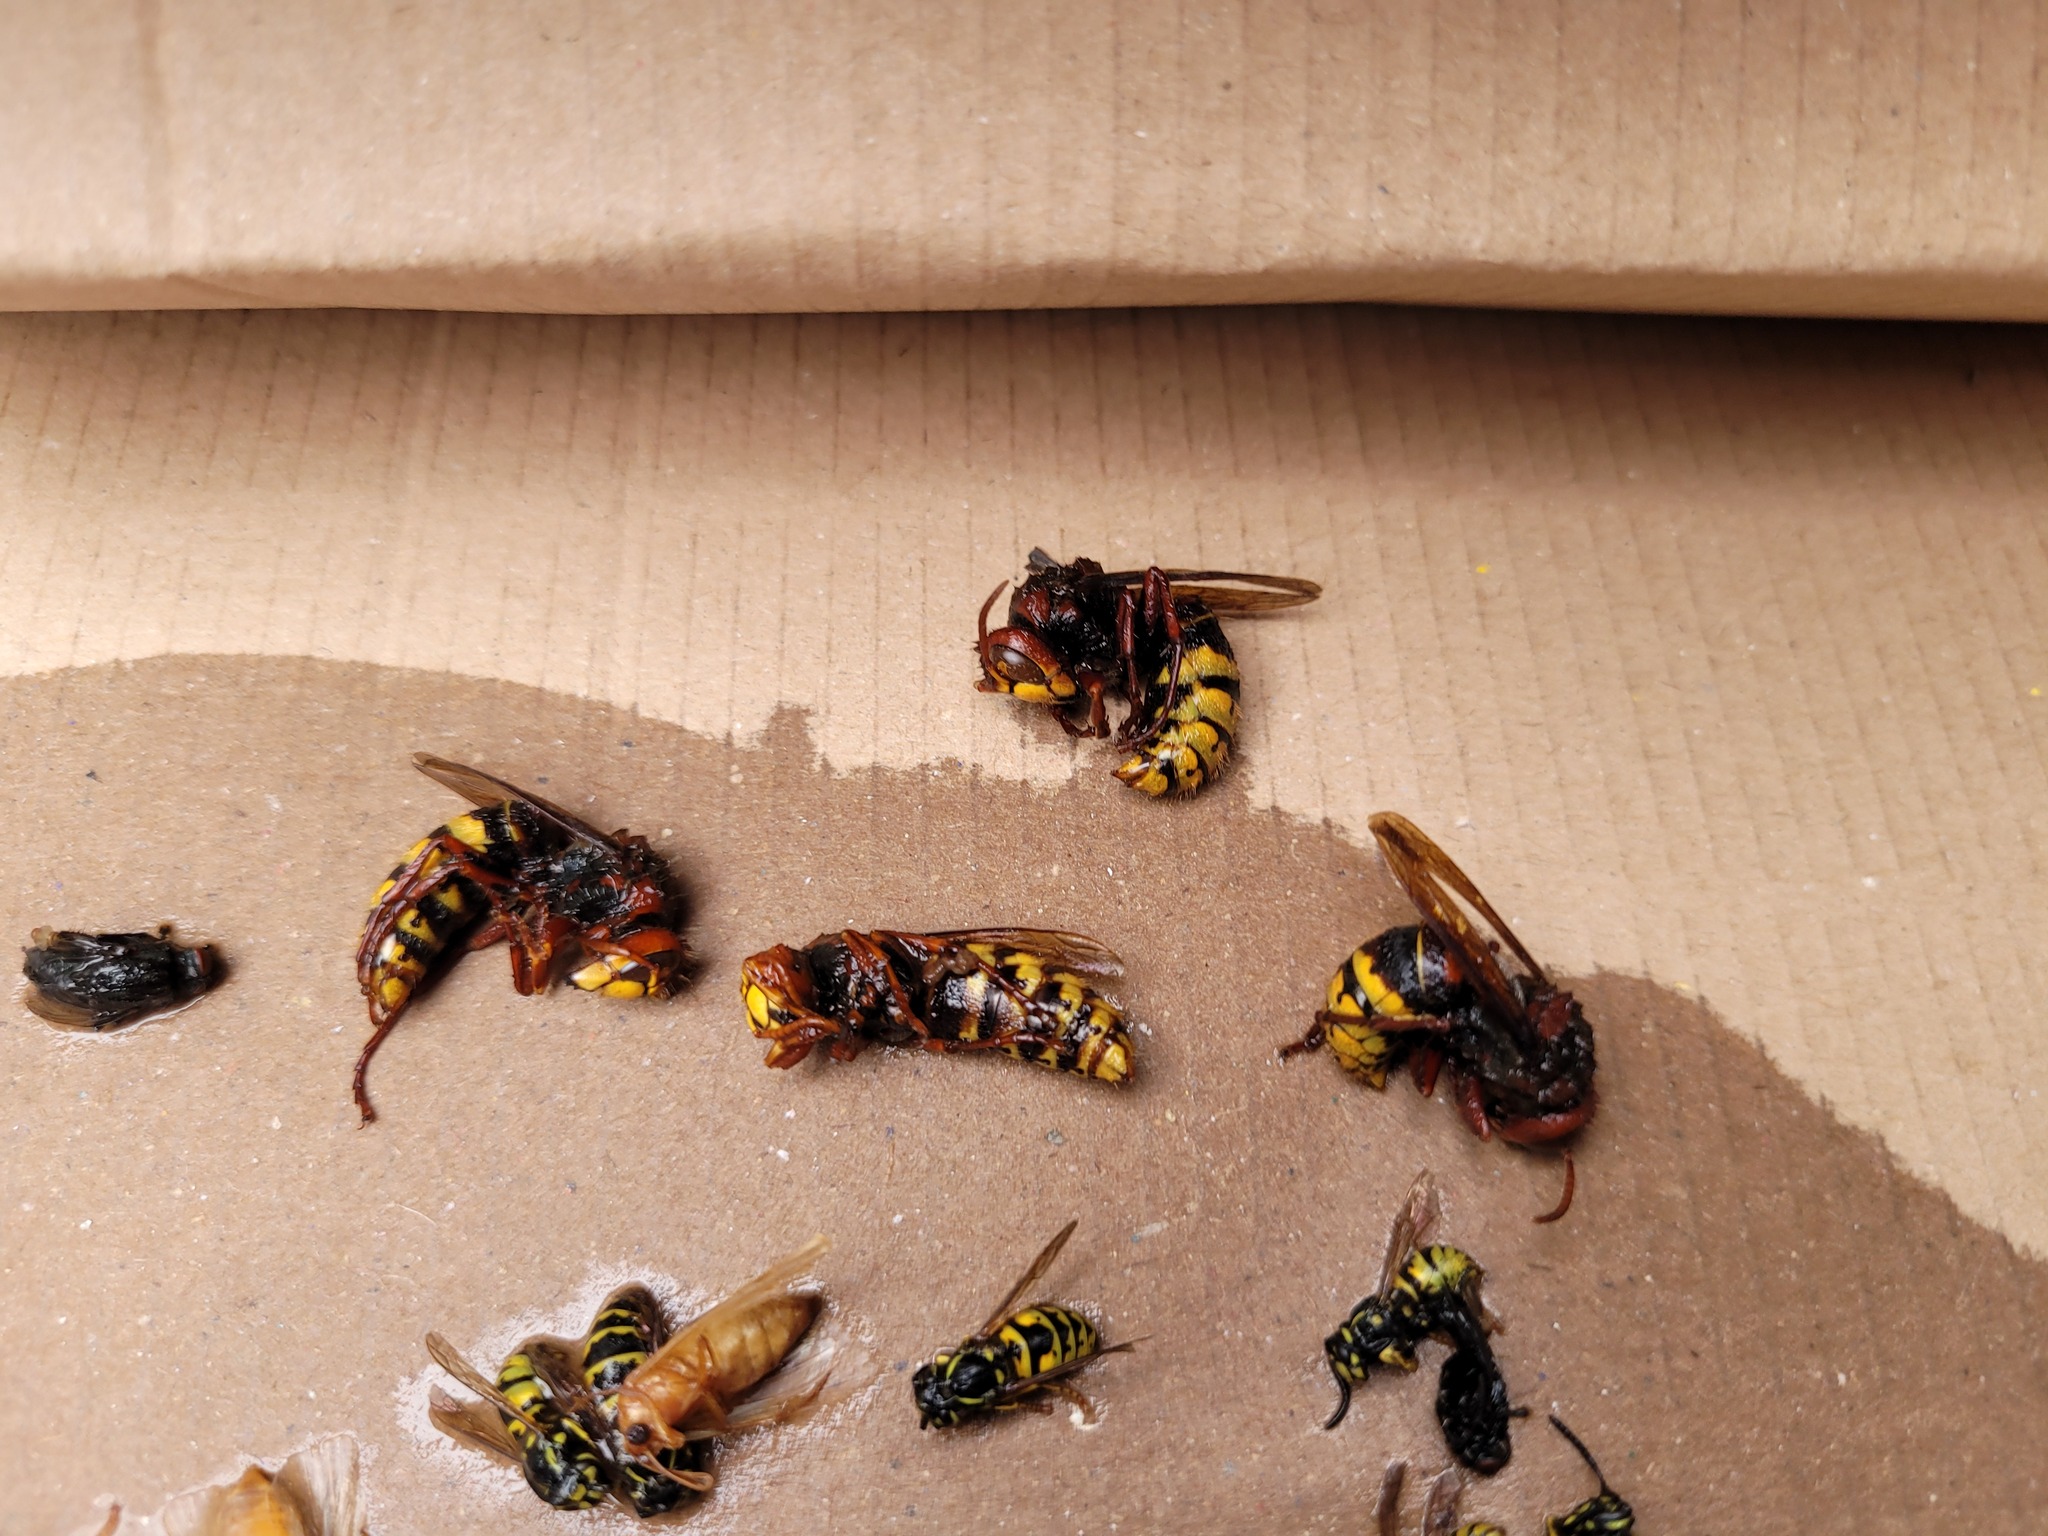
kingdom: Animalia
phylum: Arthropoda
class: Insecta
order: Hymenoptera
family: Vespidae
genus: Vespa
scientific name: Vespa crabro
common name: Hornet
